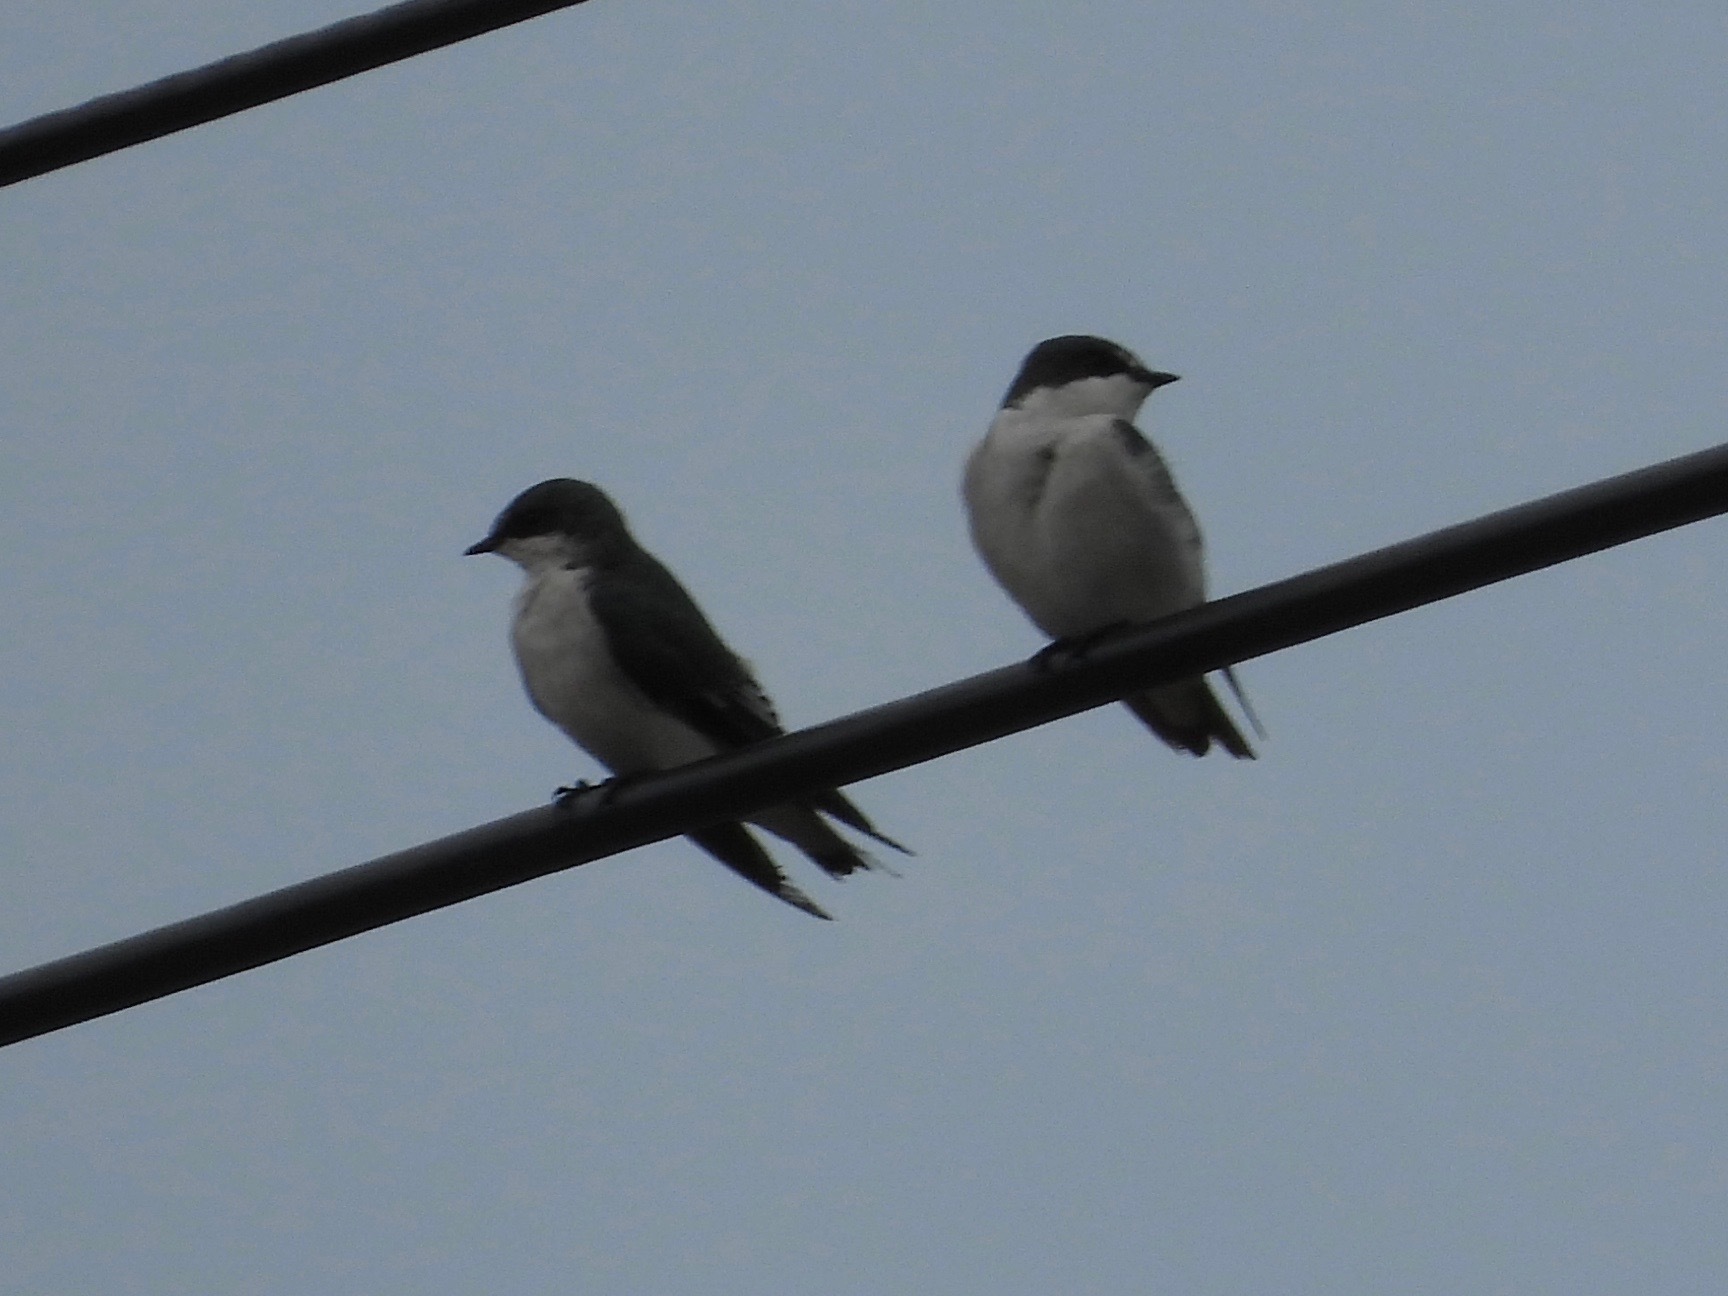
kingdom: Animalia
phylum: Chordata
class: Aves
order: Passeriformes
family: Hirundinidae
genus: Tachycineta
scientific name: Tachycineta albilinea
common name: Mangrove swallow
